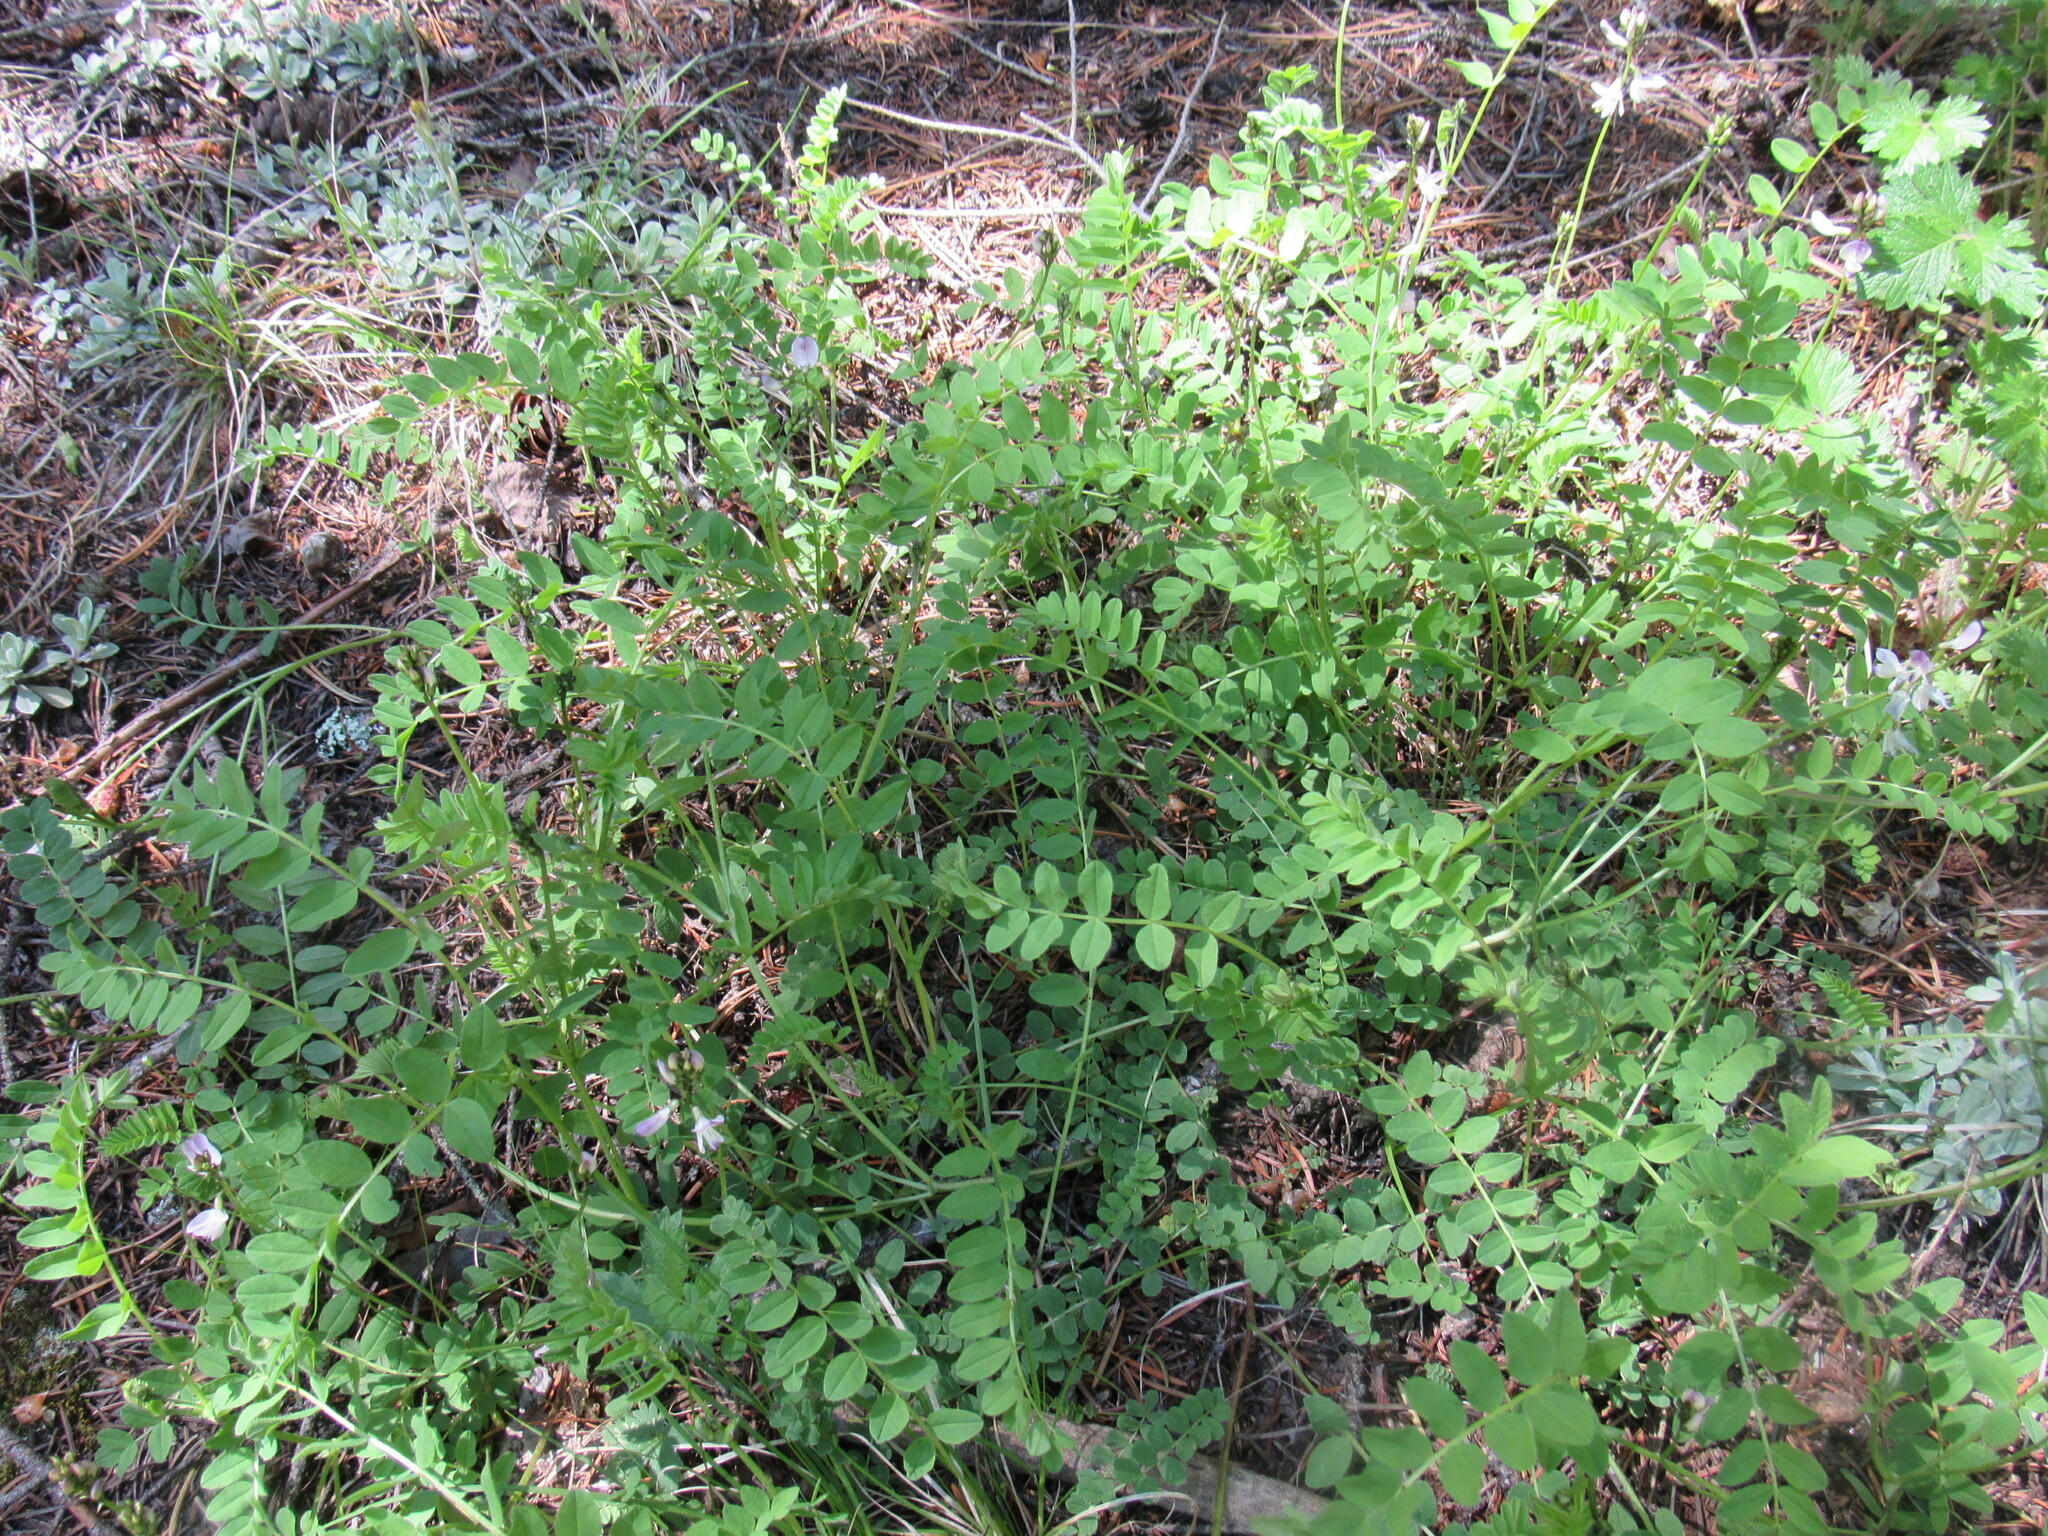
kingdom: Plantae
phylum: Tracheophyta
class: Magnoliopsida
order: Fabales
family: Fabaceae
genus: Astragalus
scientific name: Astragalus alpinus
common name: Alpine milk-vetch
